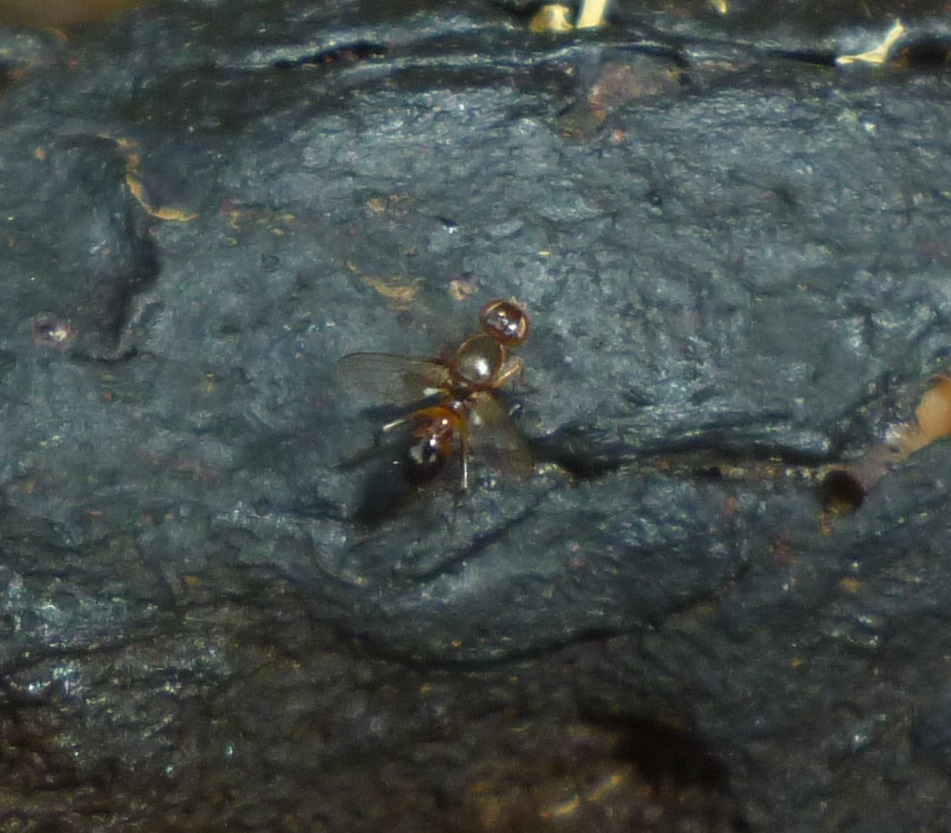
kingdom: Animalia
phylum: Arthropoda
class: Insecta
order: Diptera
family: Sepsidae
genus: Sepsis
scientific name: Sepsis lateralis
